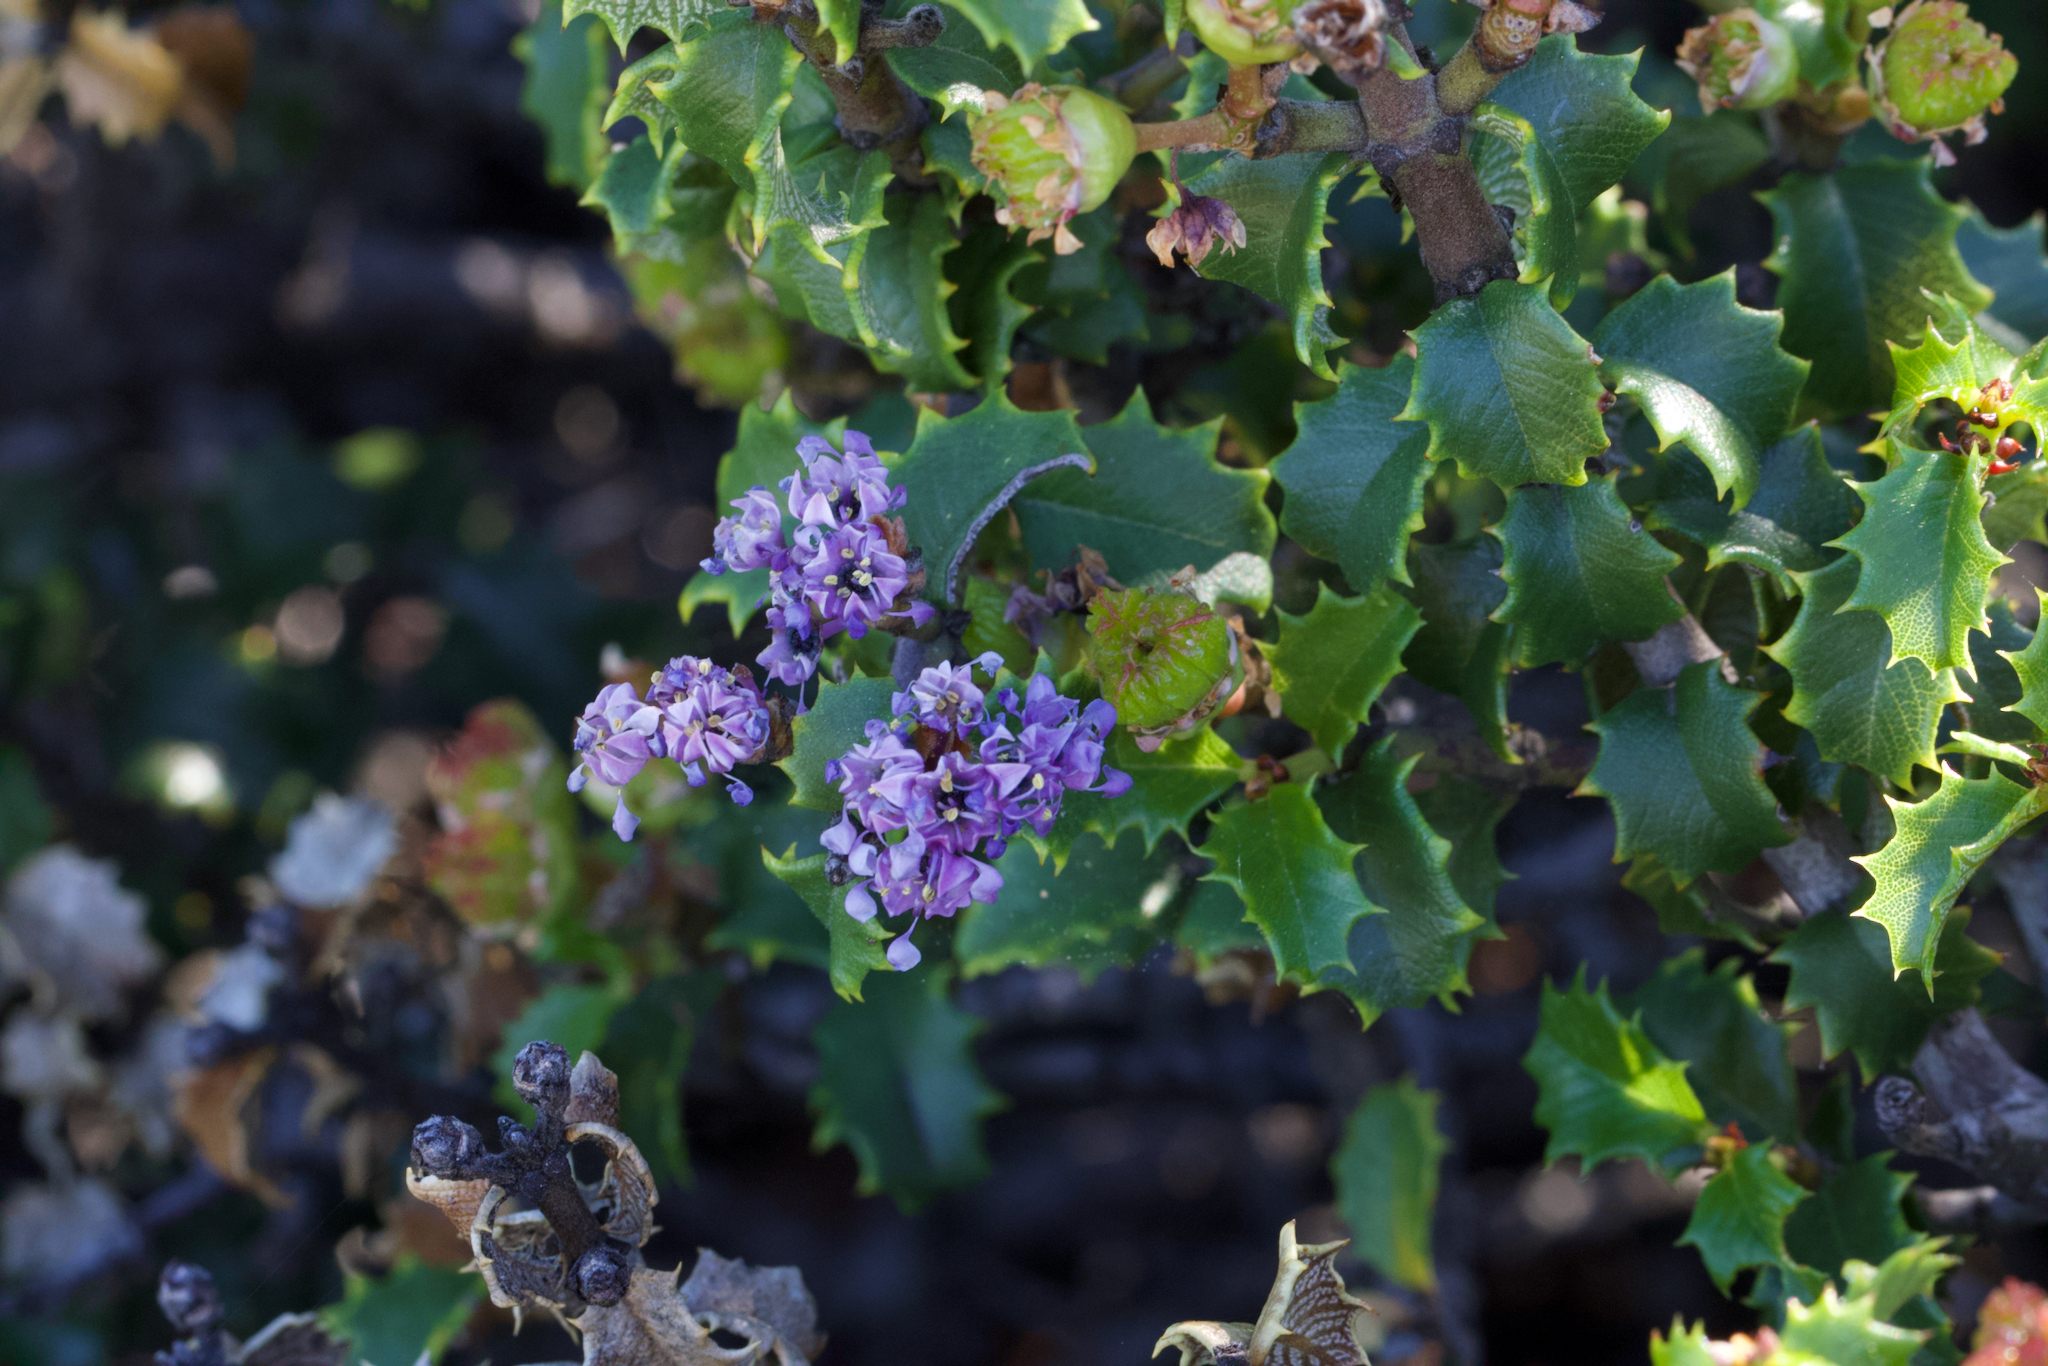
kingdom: Plantae
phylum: Tracheophyta
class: Magnoliopsida
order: Rosales
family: Rhamnaceae
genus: Ceanothus
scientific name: Ceanothus jepsonii
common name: Muskbrush
